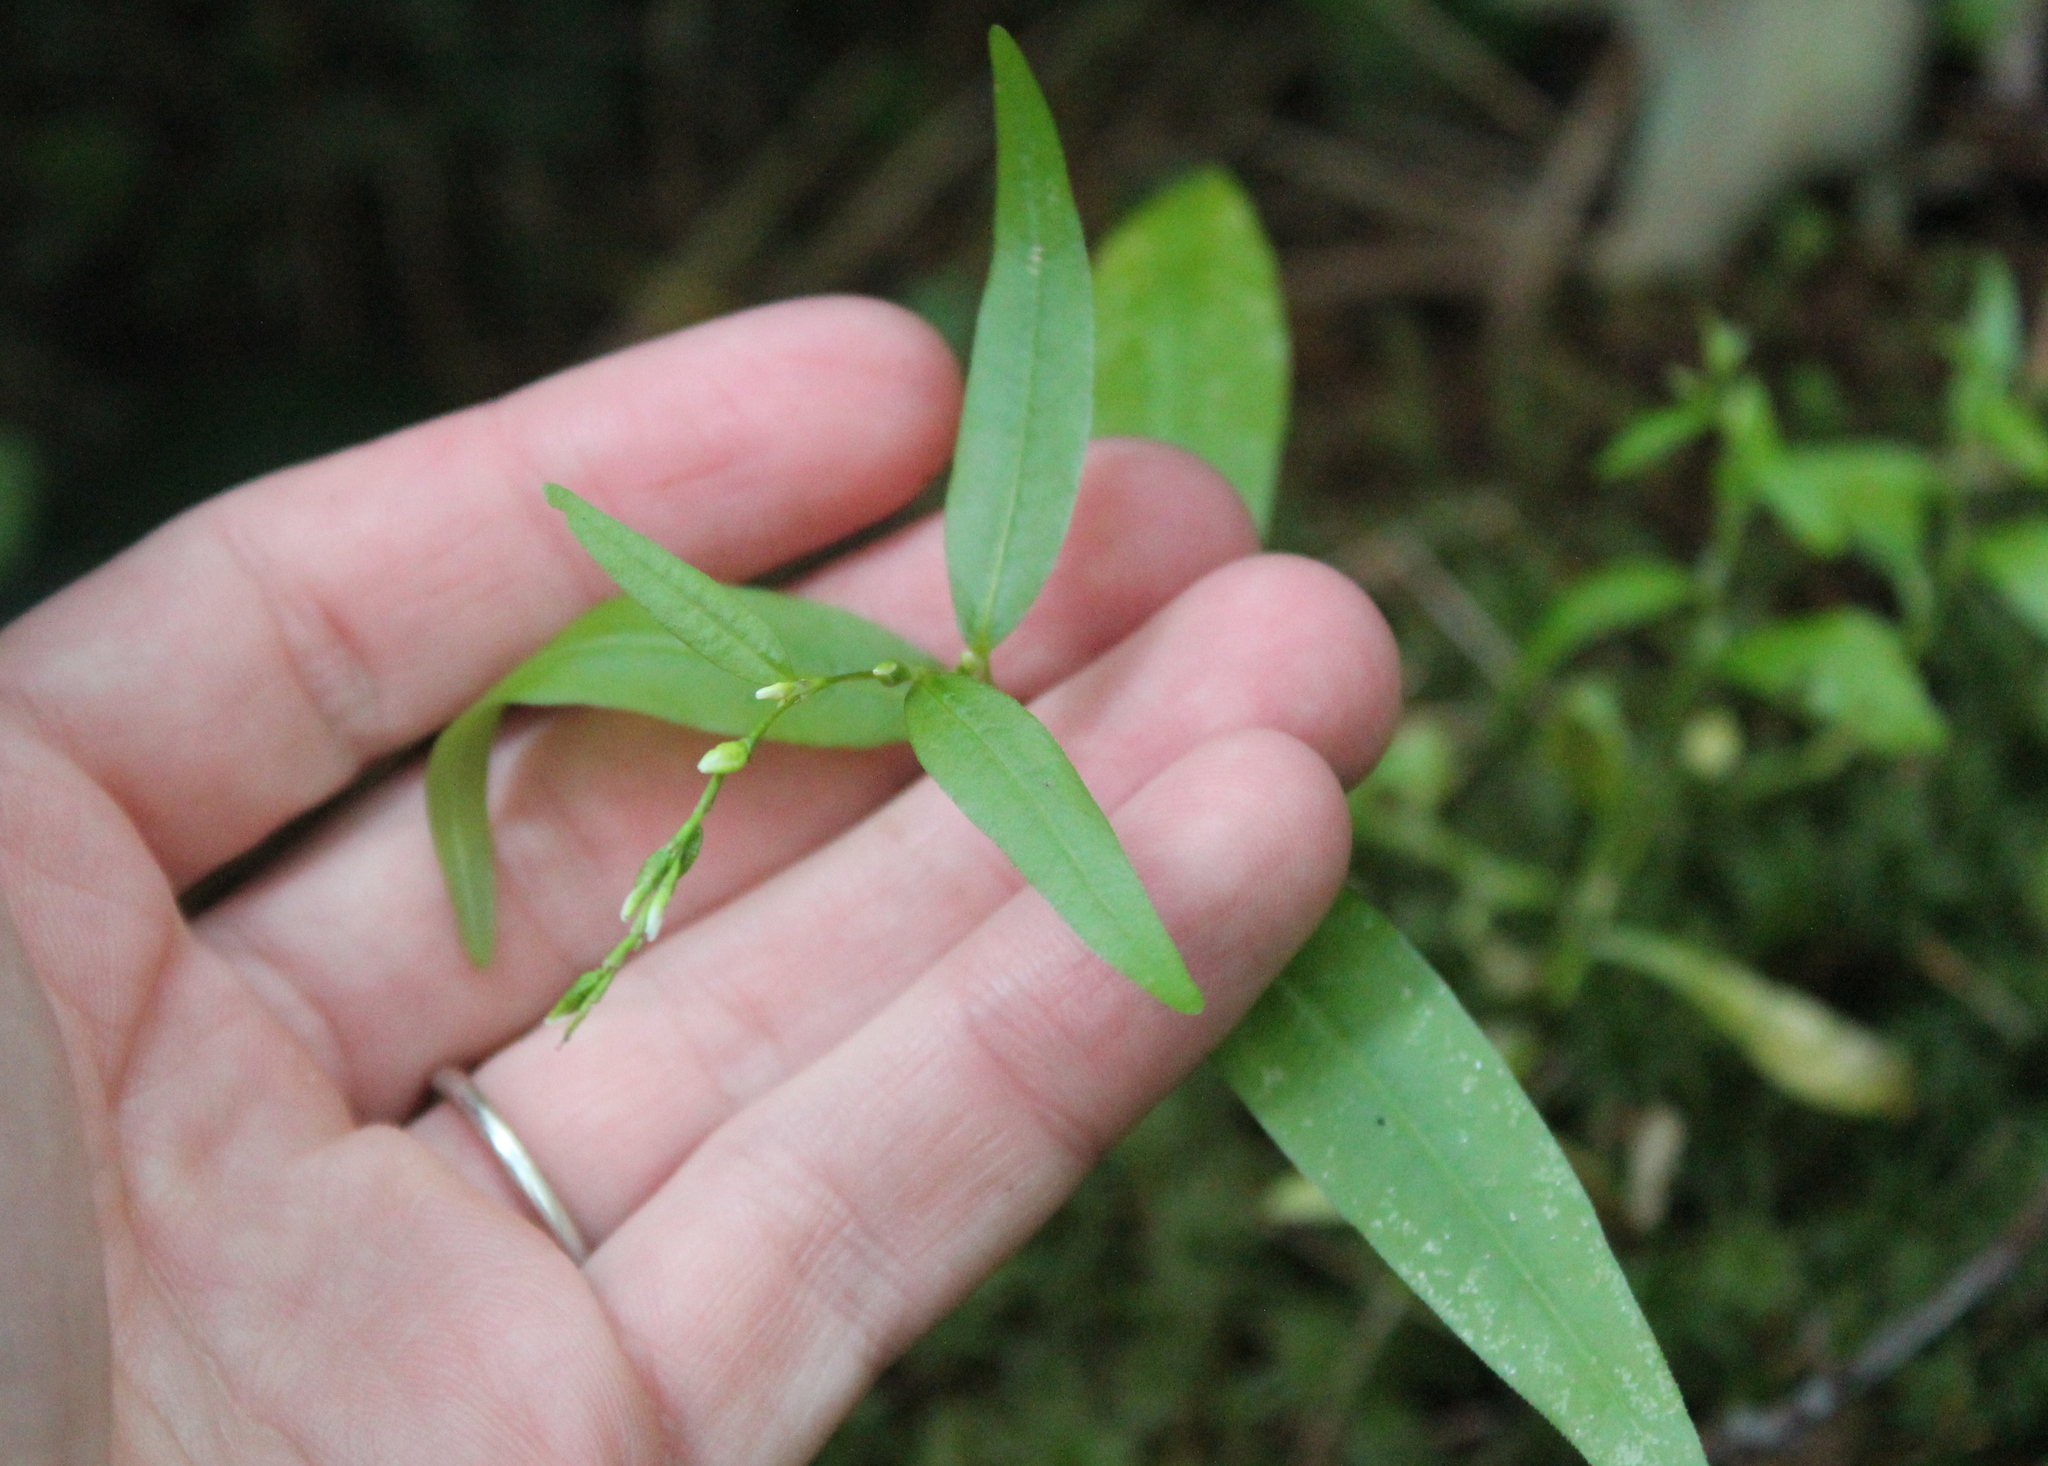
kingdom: Plantae
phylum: Tracheophyta
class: Magnoliopsida
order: Caryophyllales
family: Polygonaceae
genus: Persicaria
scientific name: Persicaria hydropiper
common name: Water-pepper
